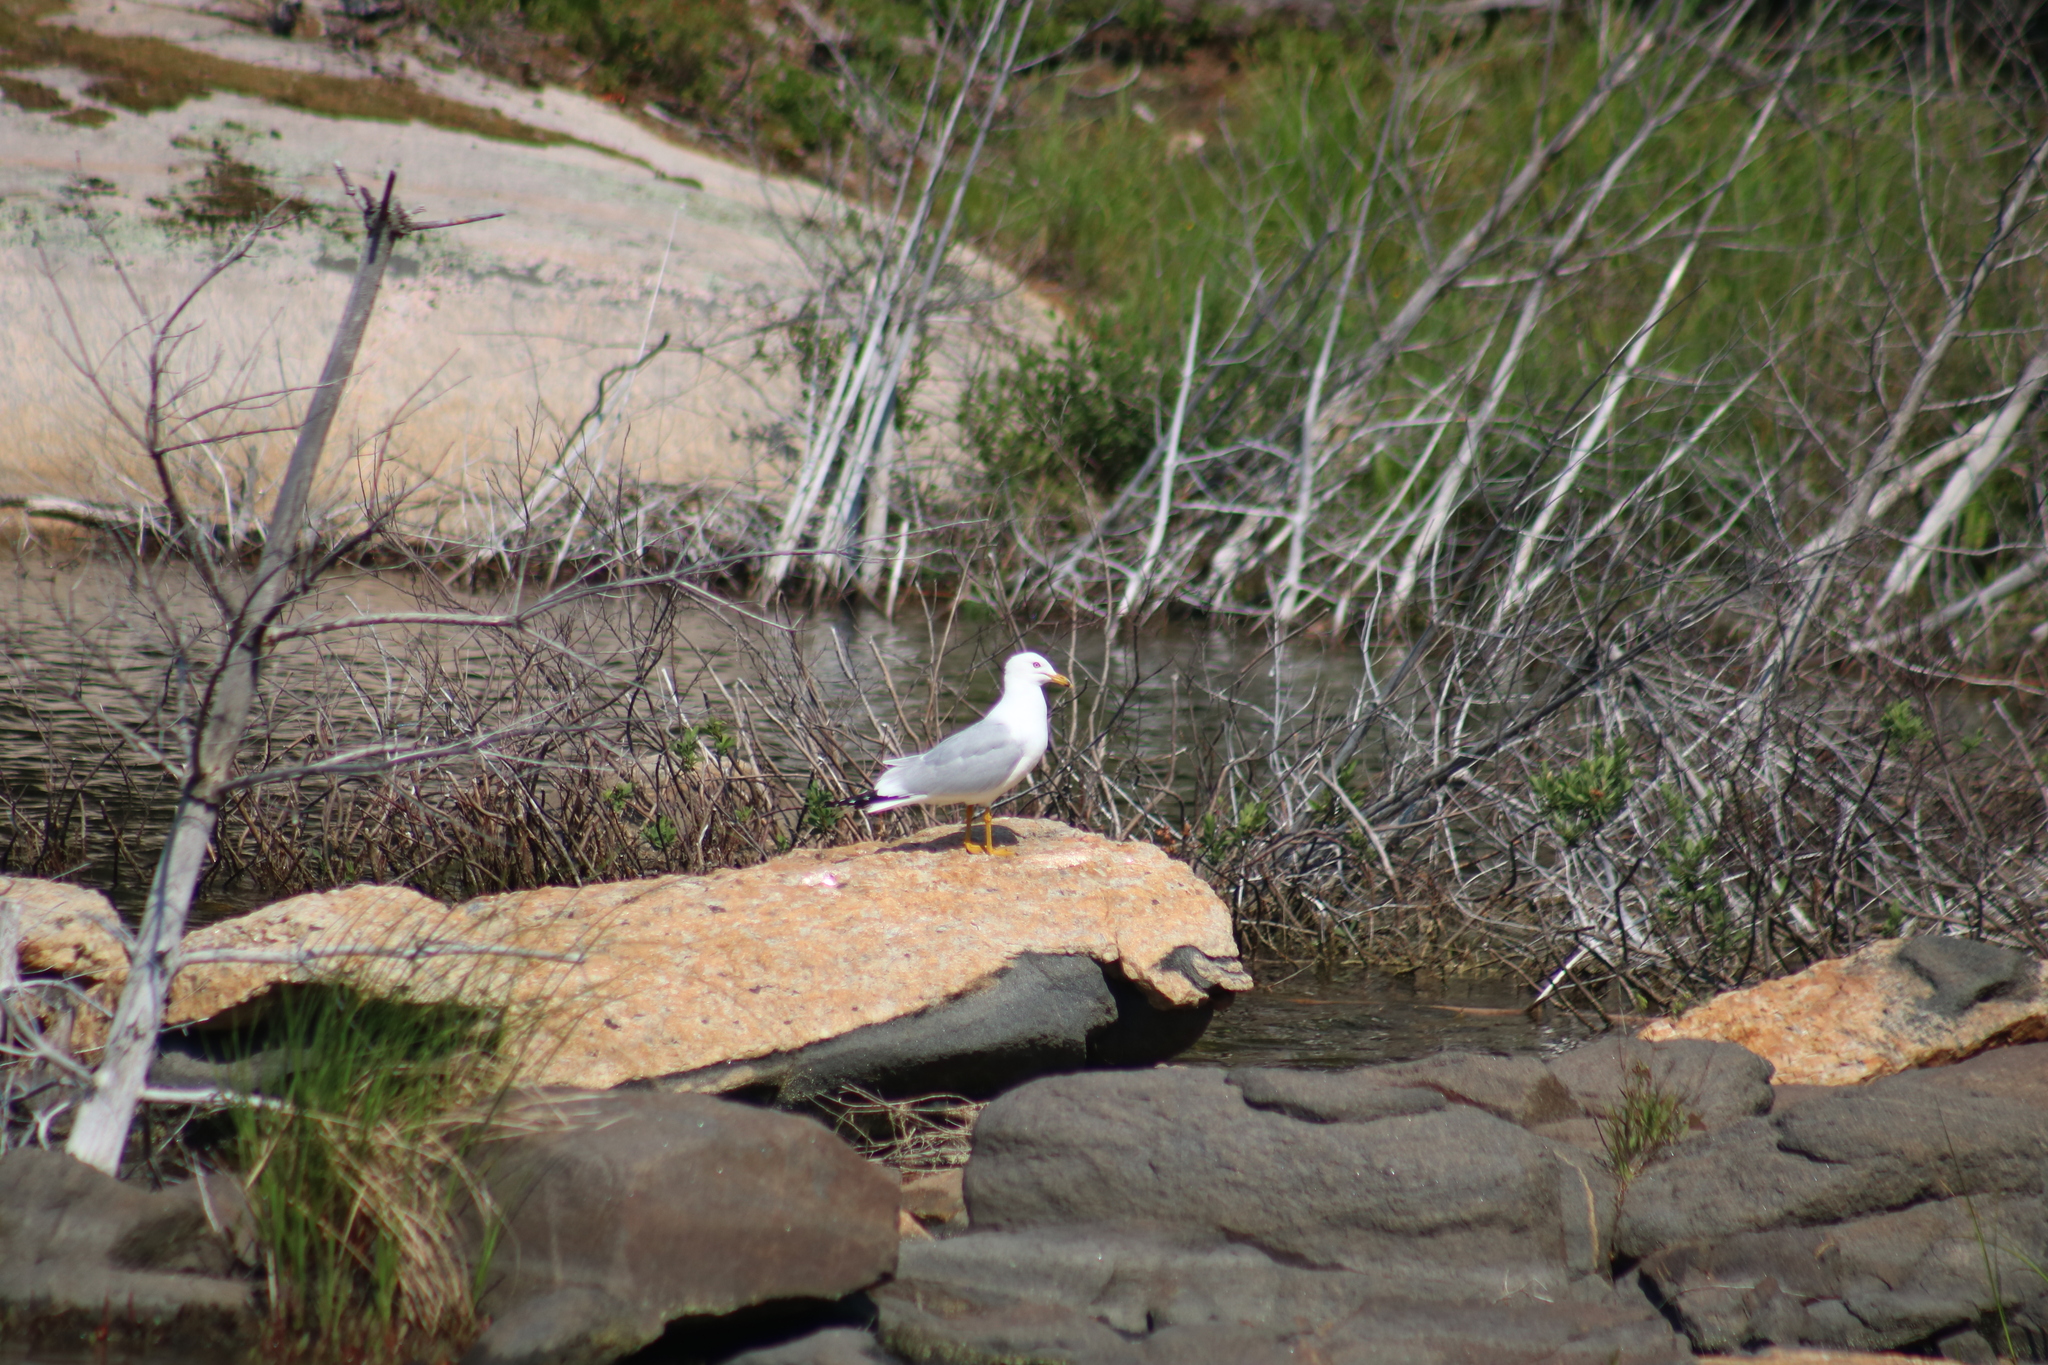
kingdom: Animalia
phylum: Chordata
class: Aves
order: Charadriiformes
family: Laridae
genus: Larus
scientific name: Larus delawarensis
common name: Ring-billed gull
